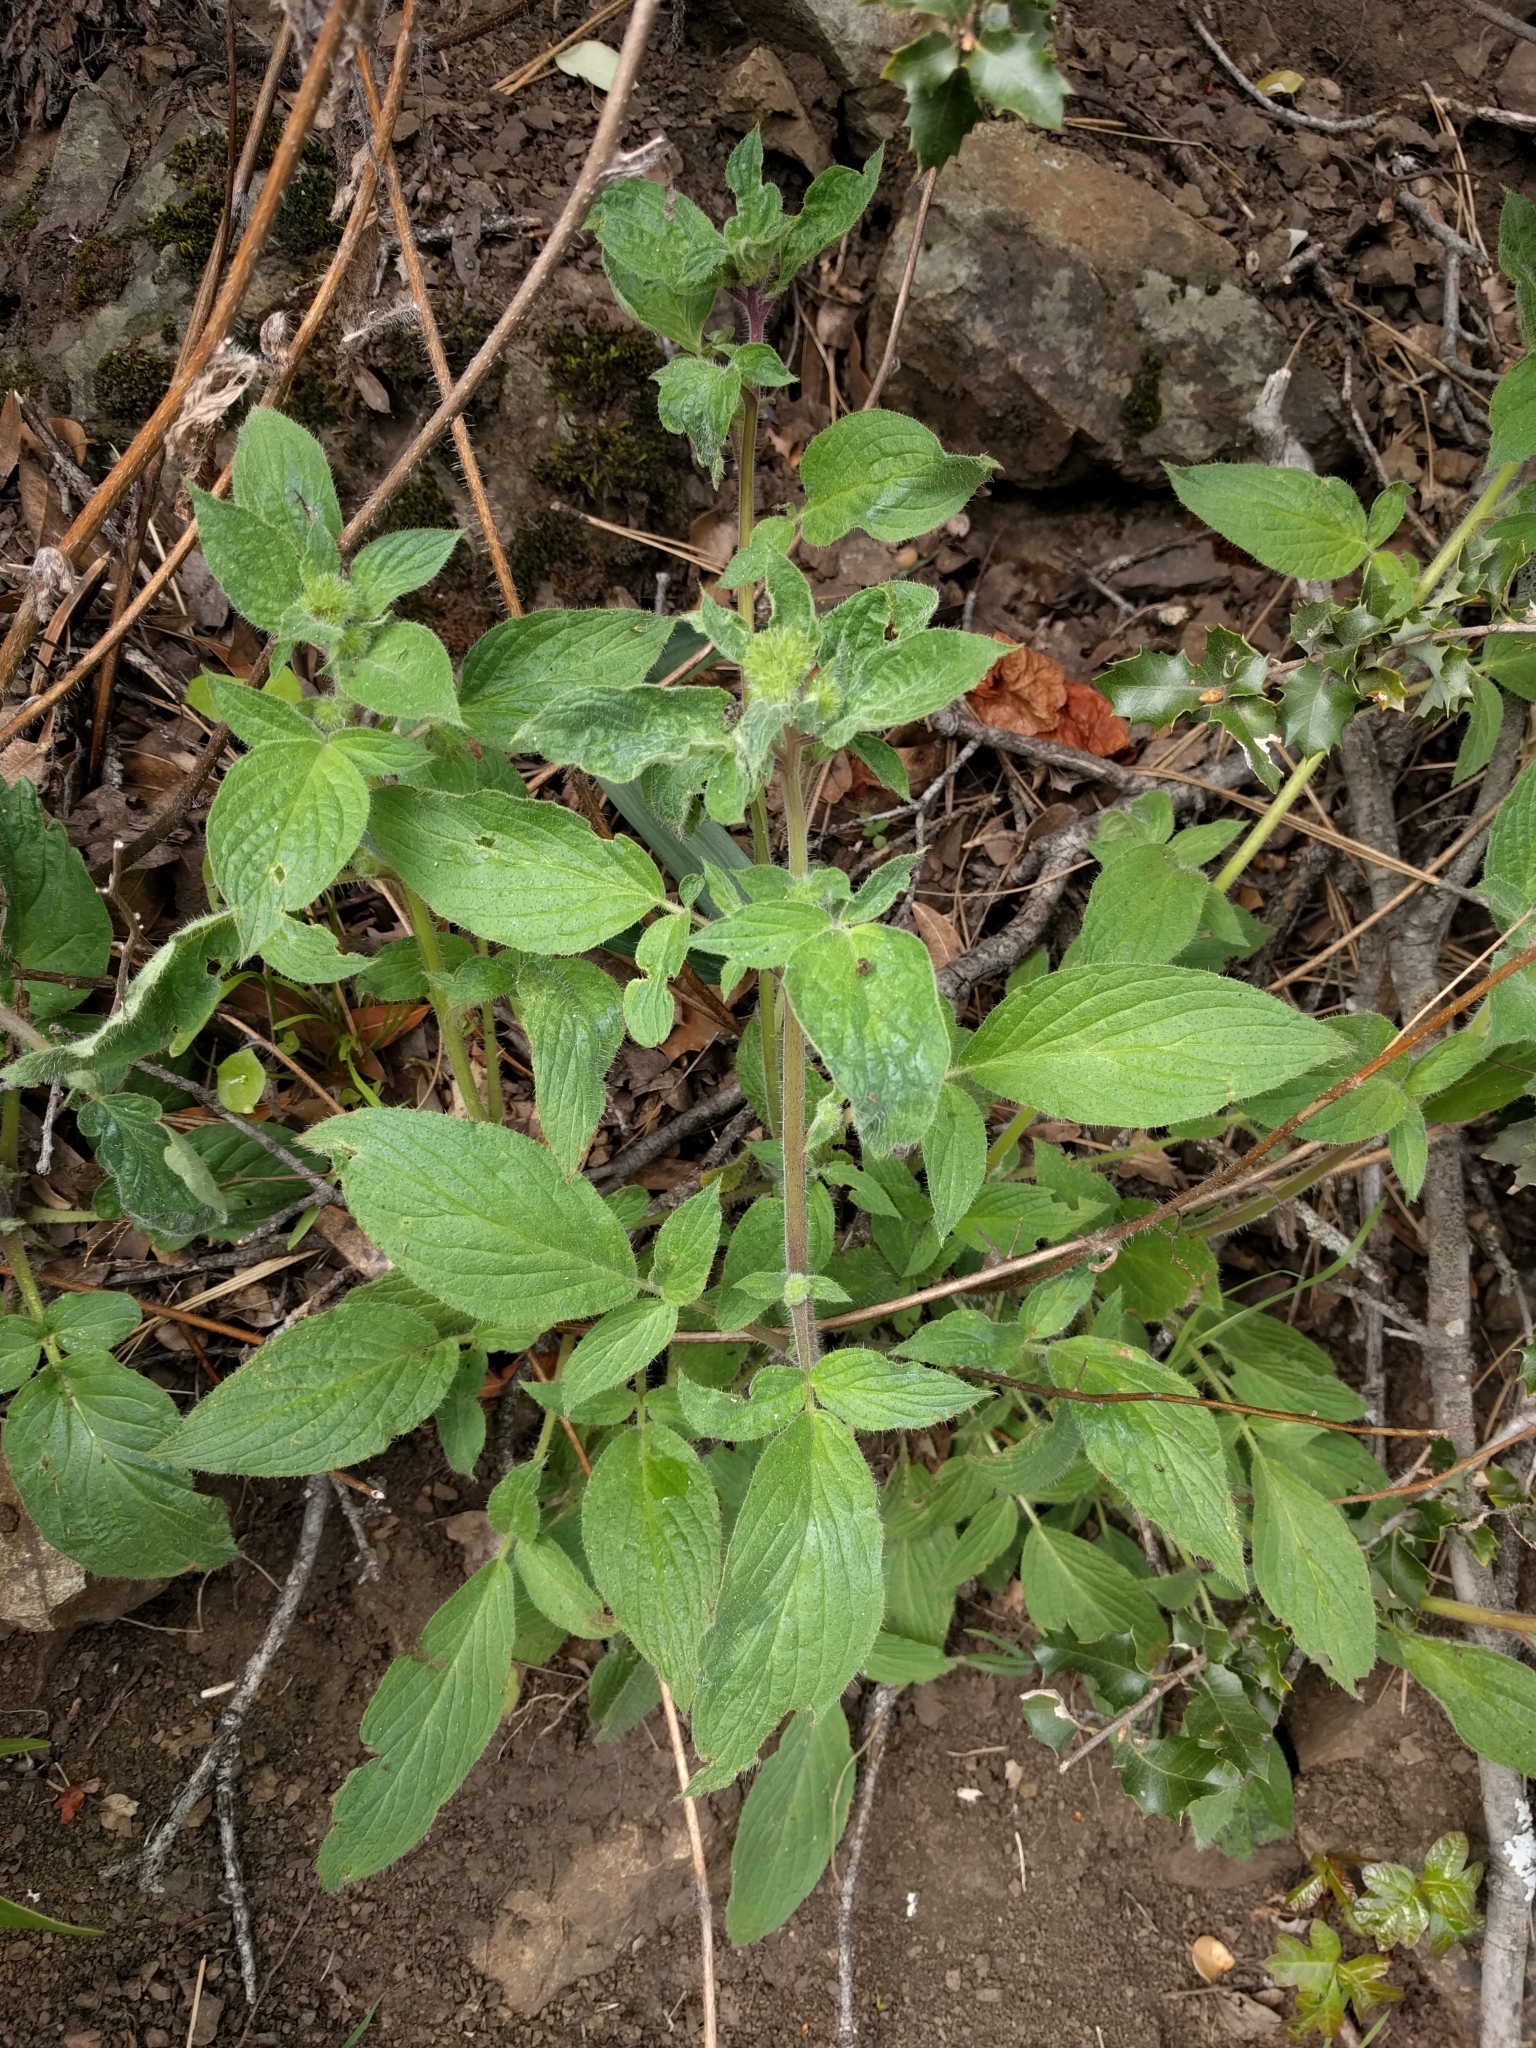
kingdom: Plantae
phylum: Tracheophyta
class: Magnoliopsida
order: Boraginales
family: Hydrophyllaceae
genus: Phacelia
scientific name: Phacelia nemoralis
